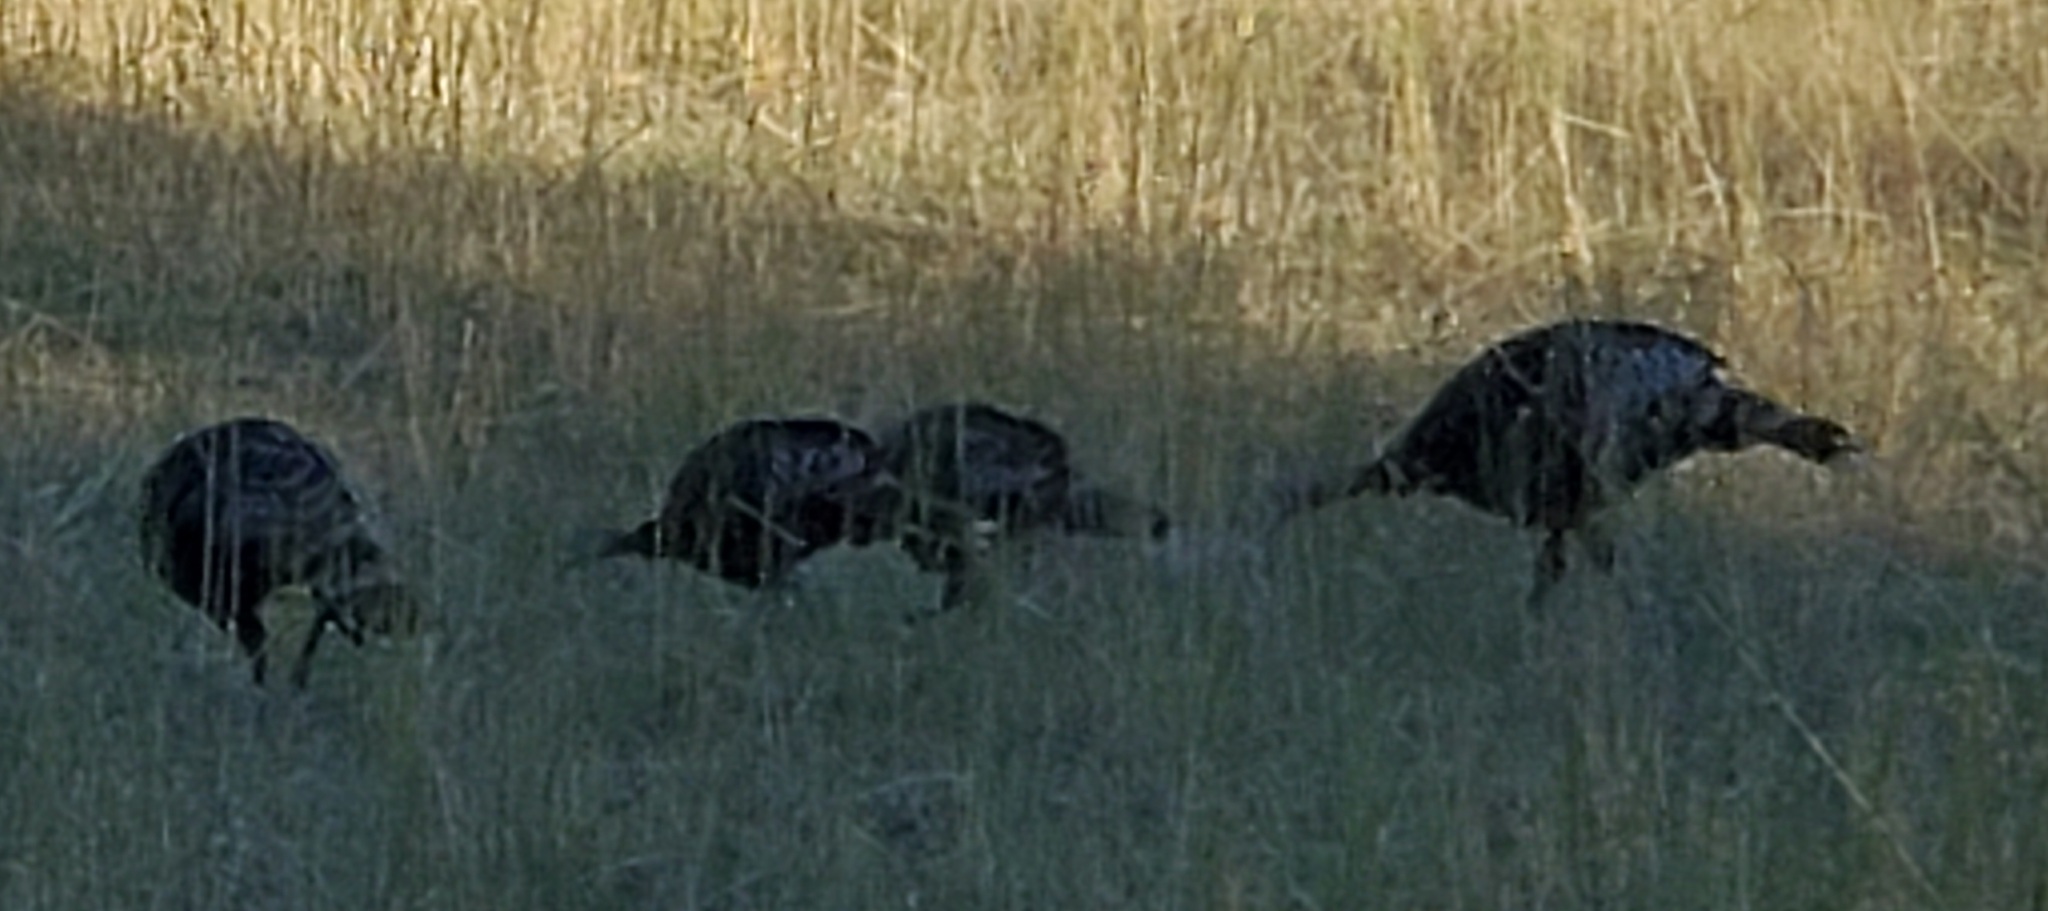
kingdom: Animalia
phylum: Chordata
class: Aves
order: Galliformes
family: Phasianidae
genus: Meleagris
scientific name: Meleagris gallopavo
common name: Wild turkey
